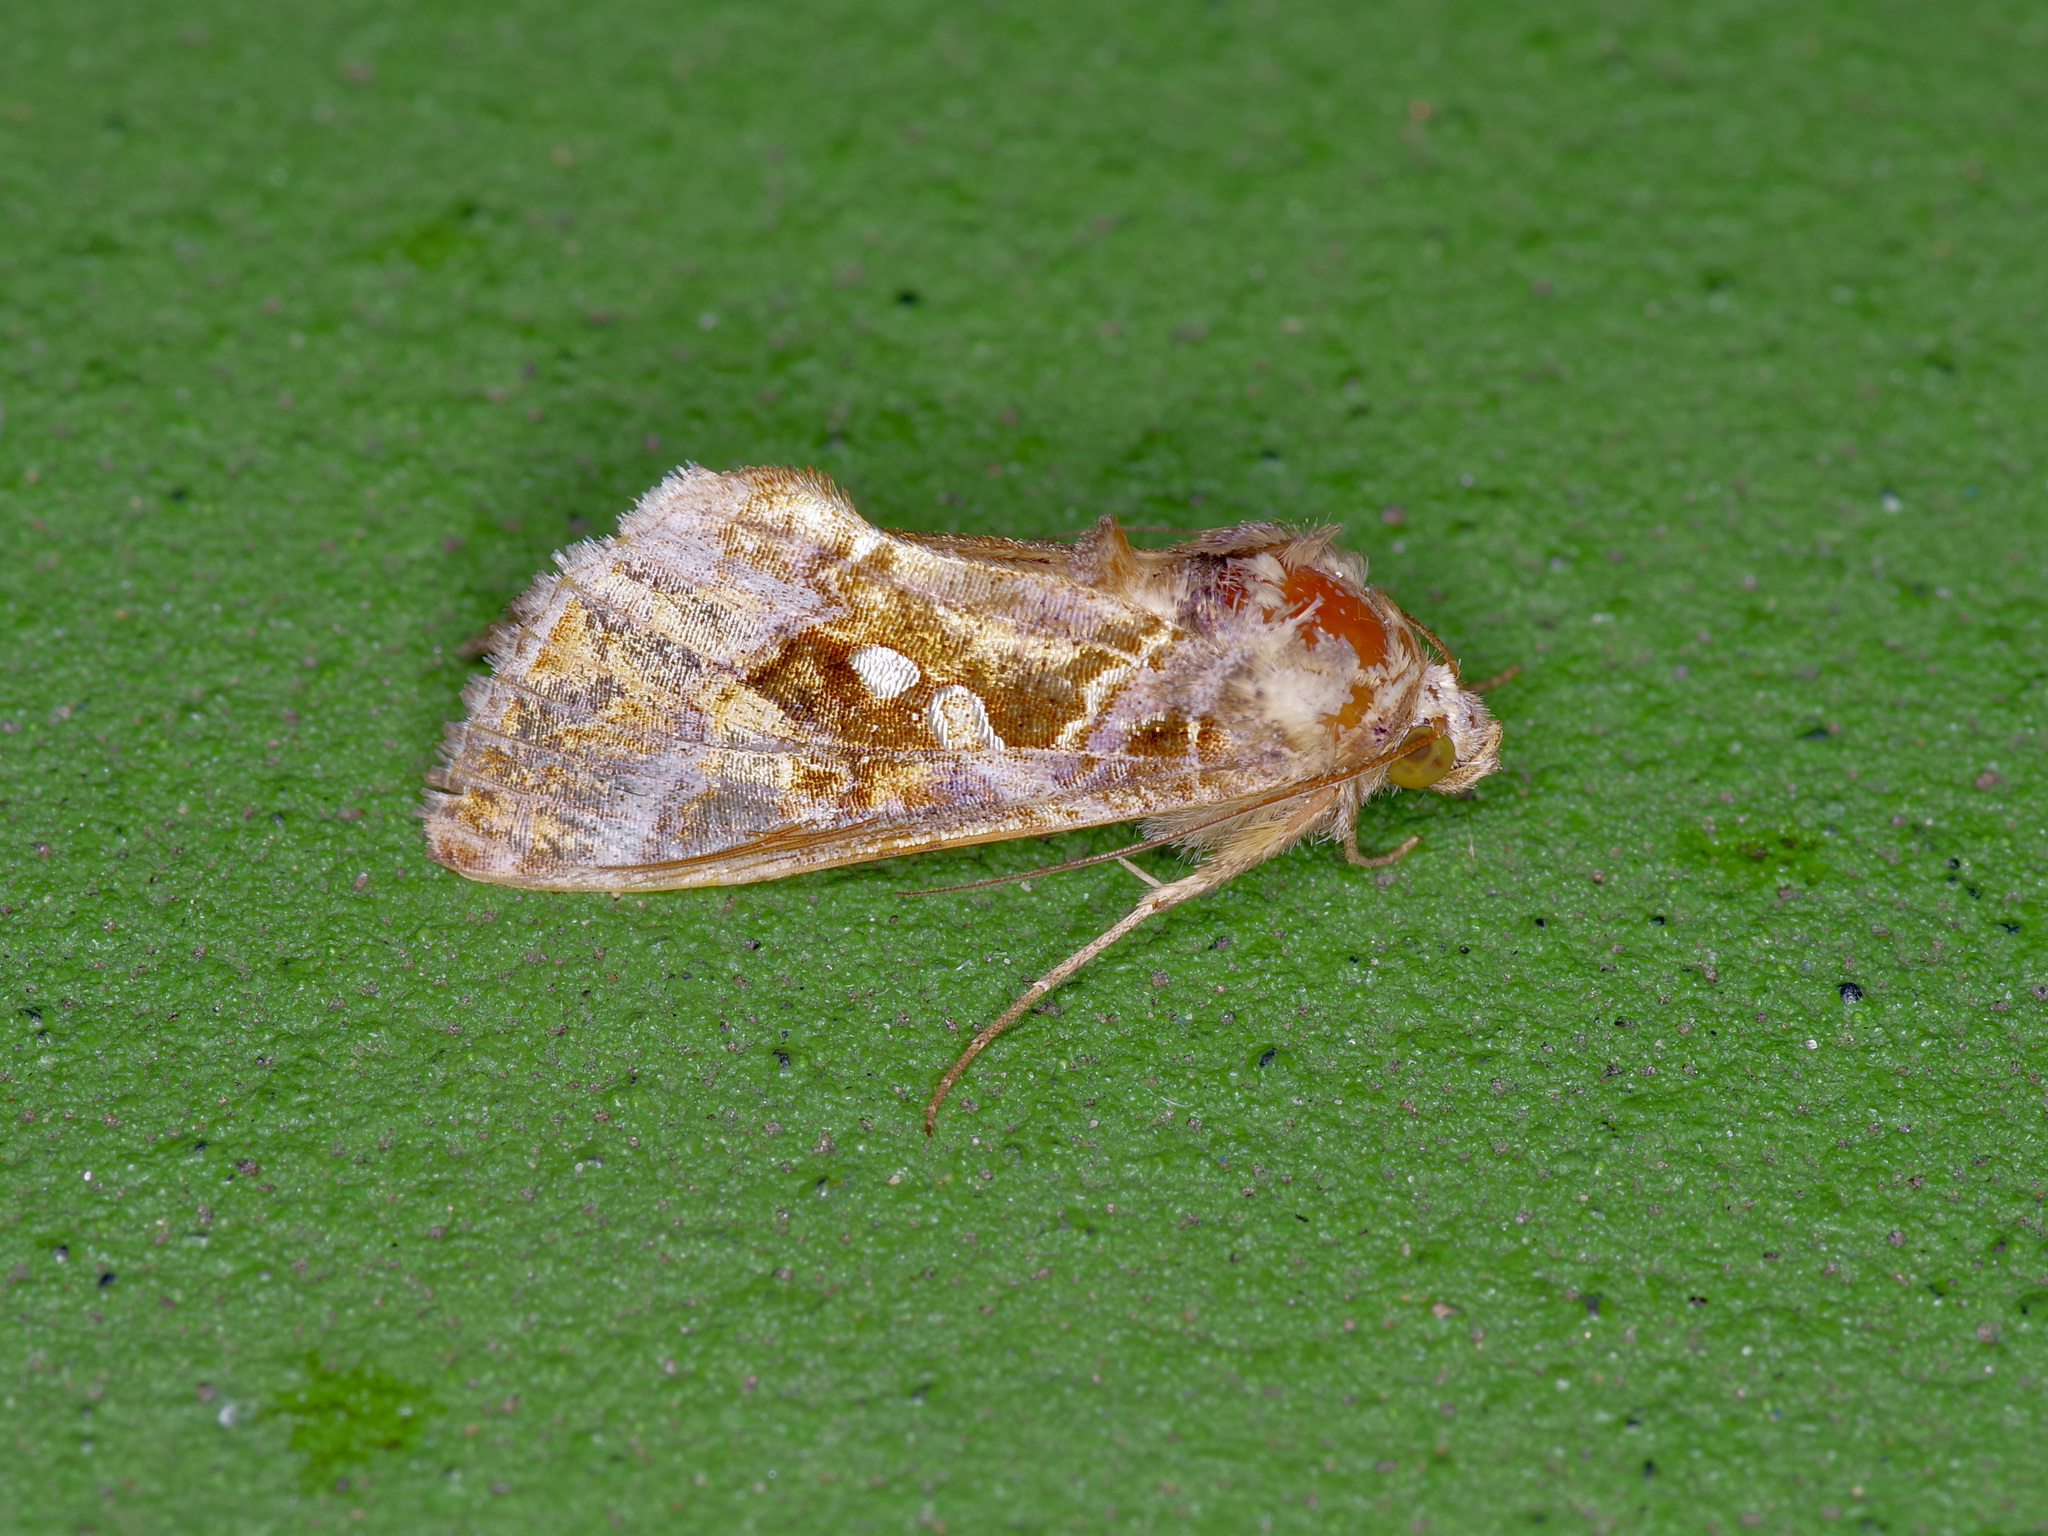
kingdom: Animalia
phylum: Arthropoda
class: Insecta
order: Lepidoptera
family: Noctuidae
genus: Chrysodeixis
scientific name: Chrysodeixis includens
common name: Cutworm moth
